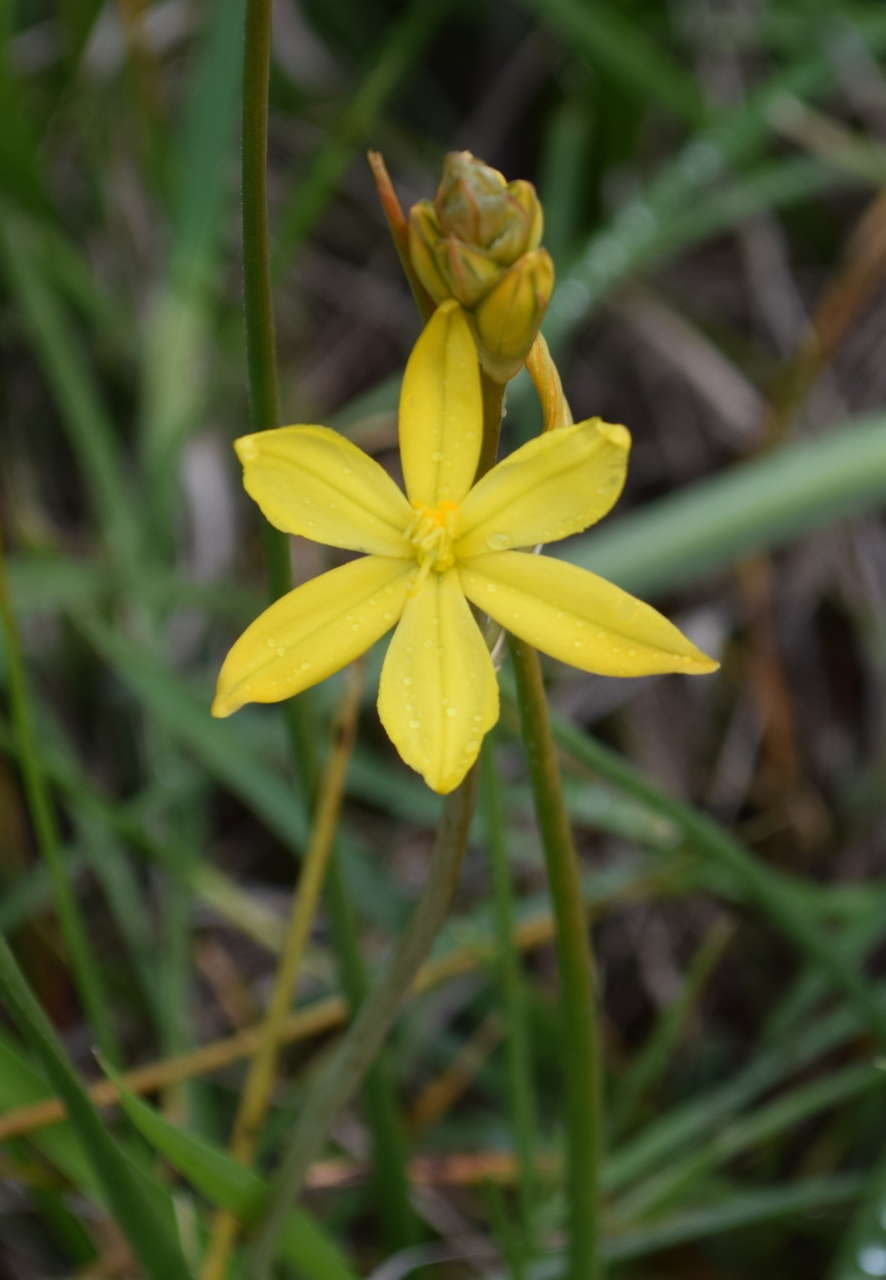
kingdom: Plantae
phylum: Tracheophyta
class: Liliopsida
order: Asparagales
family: Asphodelaceae
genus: Bulbine
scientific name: Bulbine bulbosa
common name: Golden-lily
